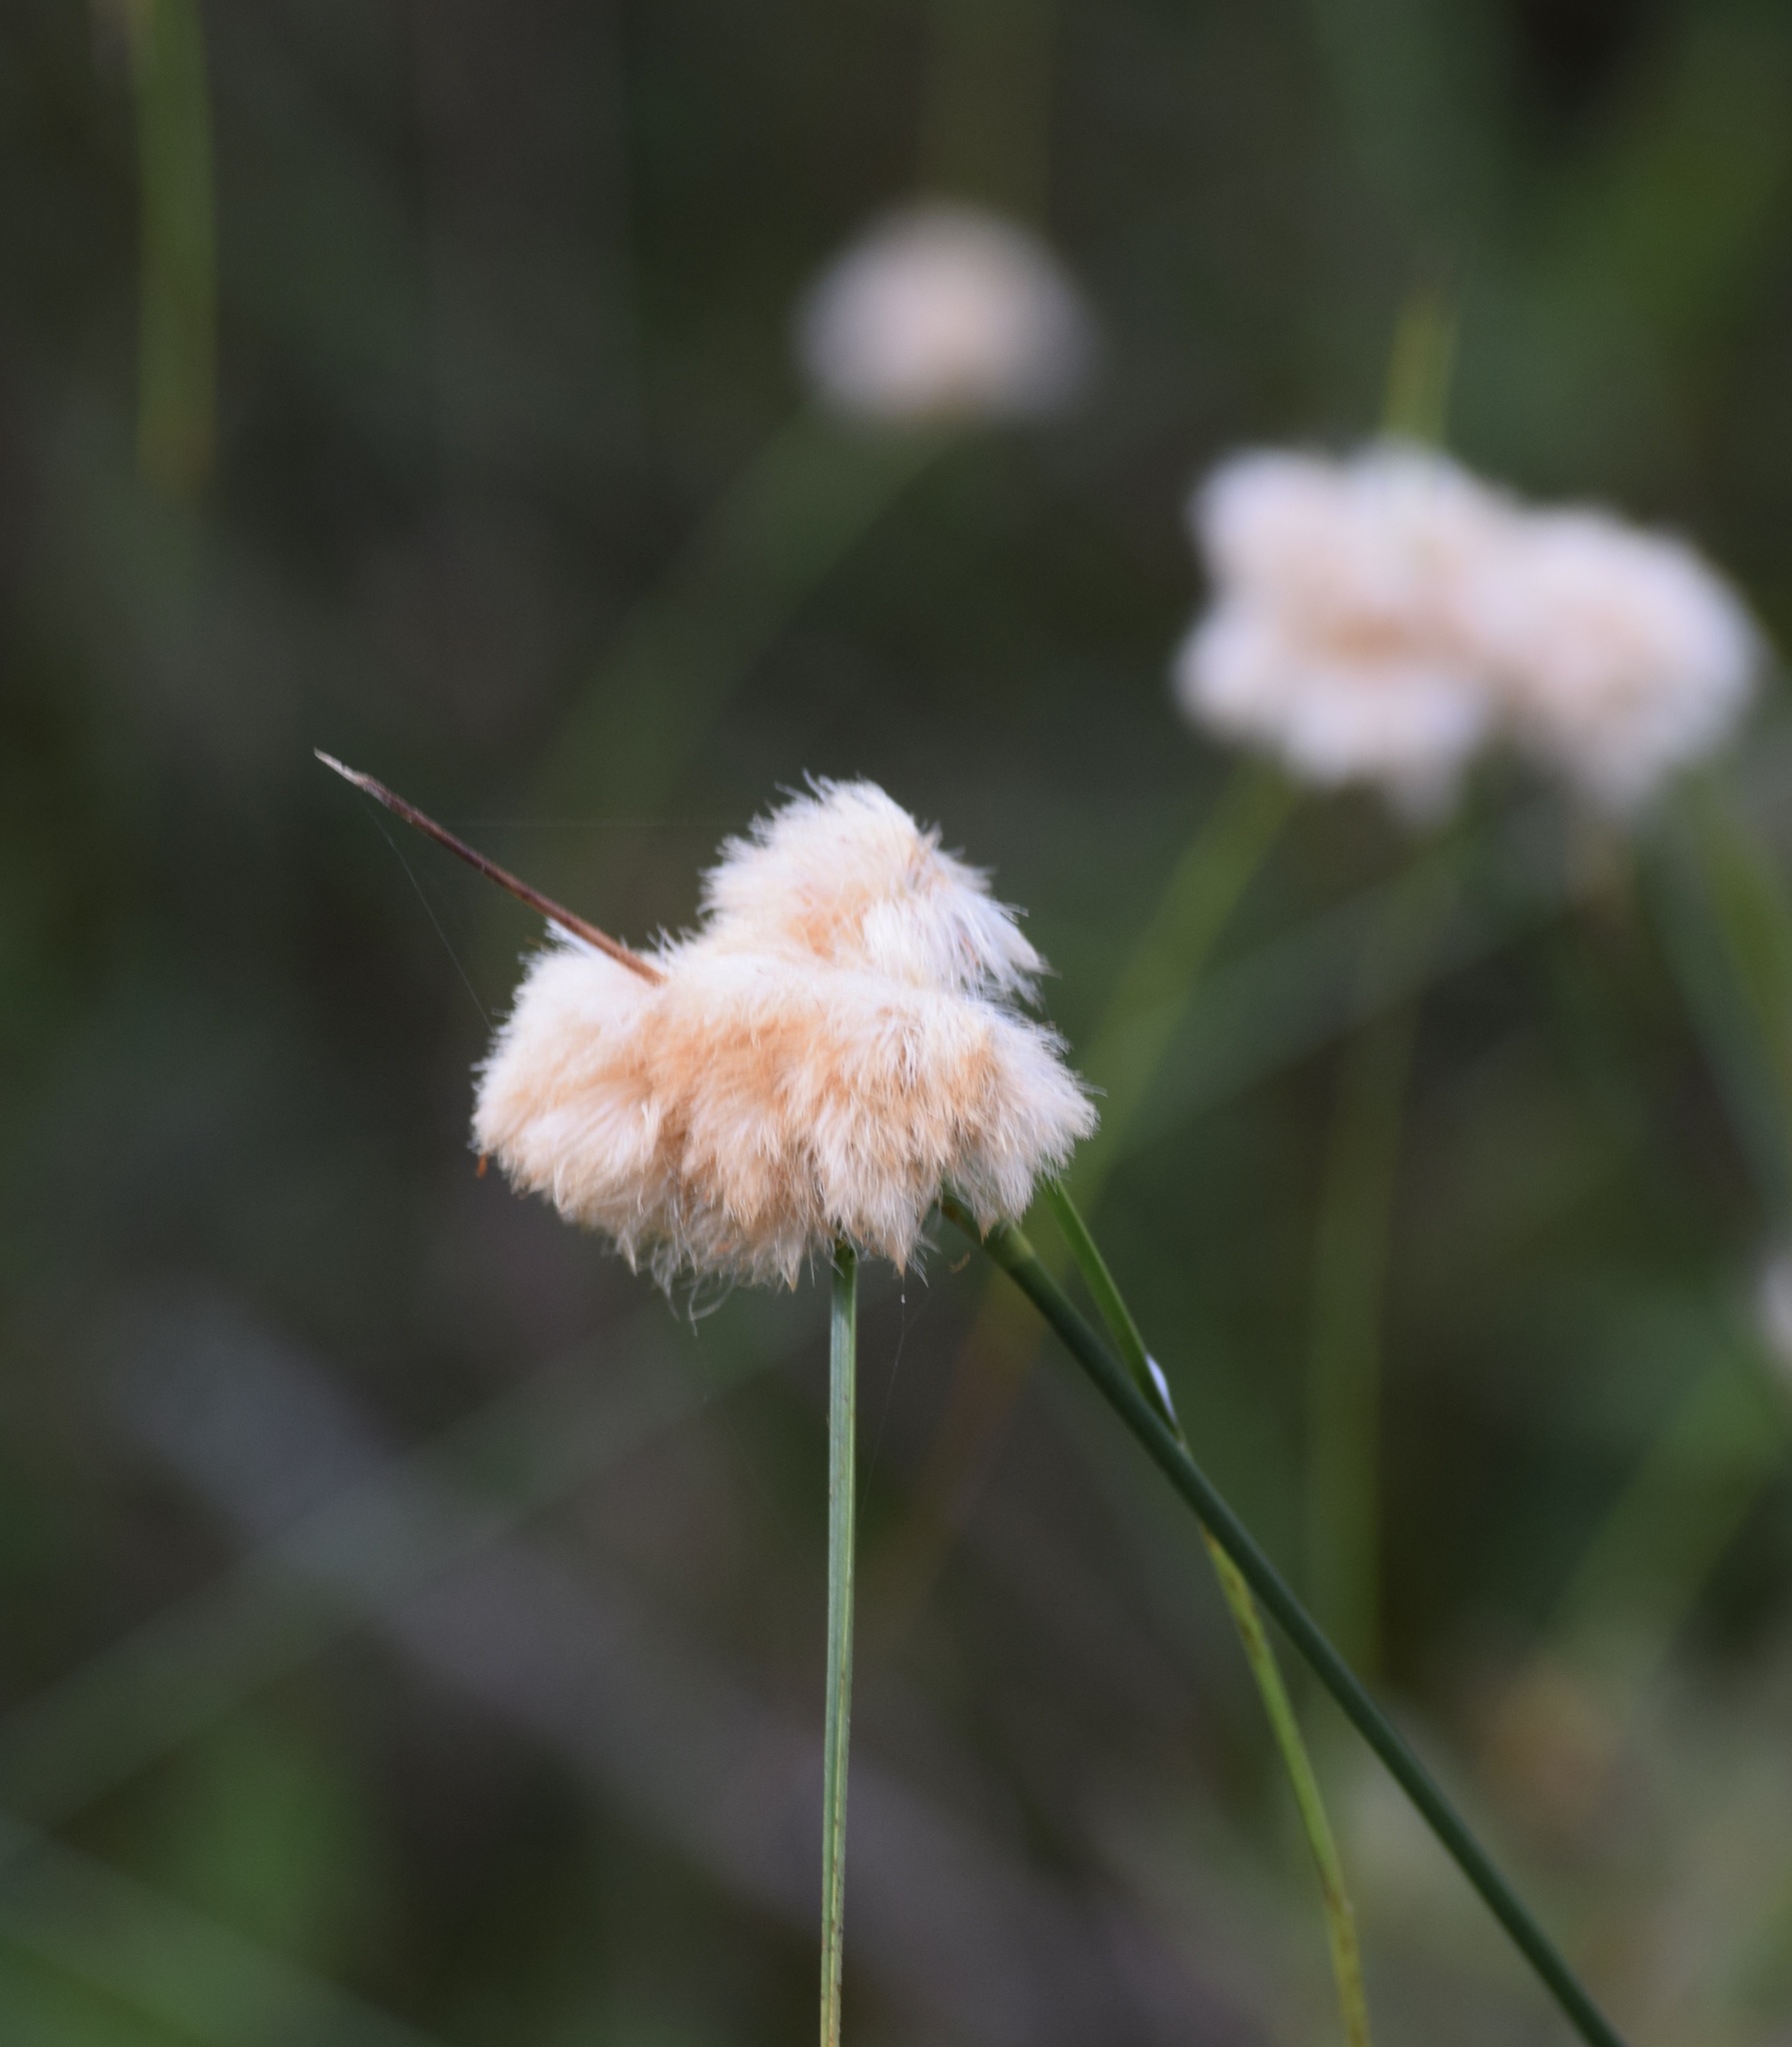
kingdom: Plantae
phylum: Tracheophyta
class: Liliopsida
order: Poales
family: Cyperaceae
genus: Eriophorum
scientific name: Eriophorum virginicum
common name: Tawny cottongrass
